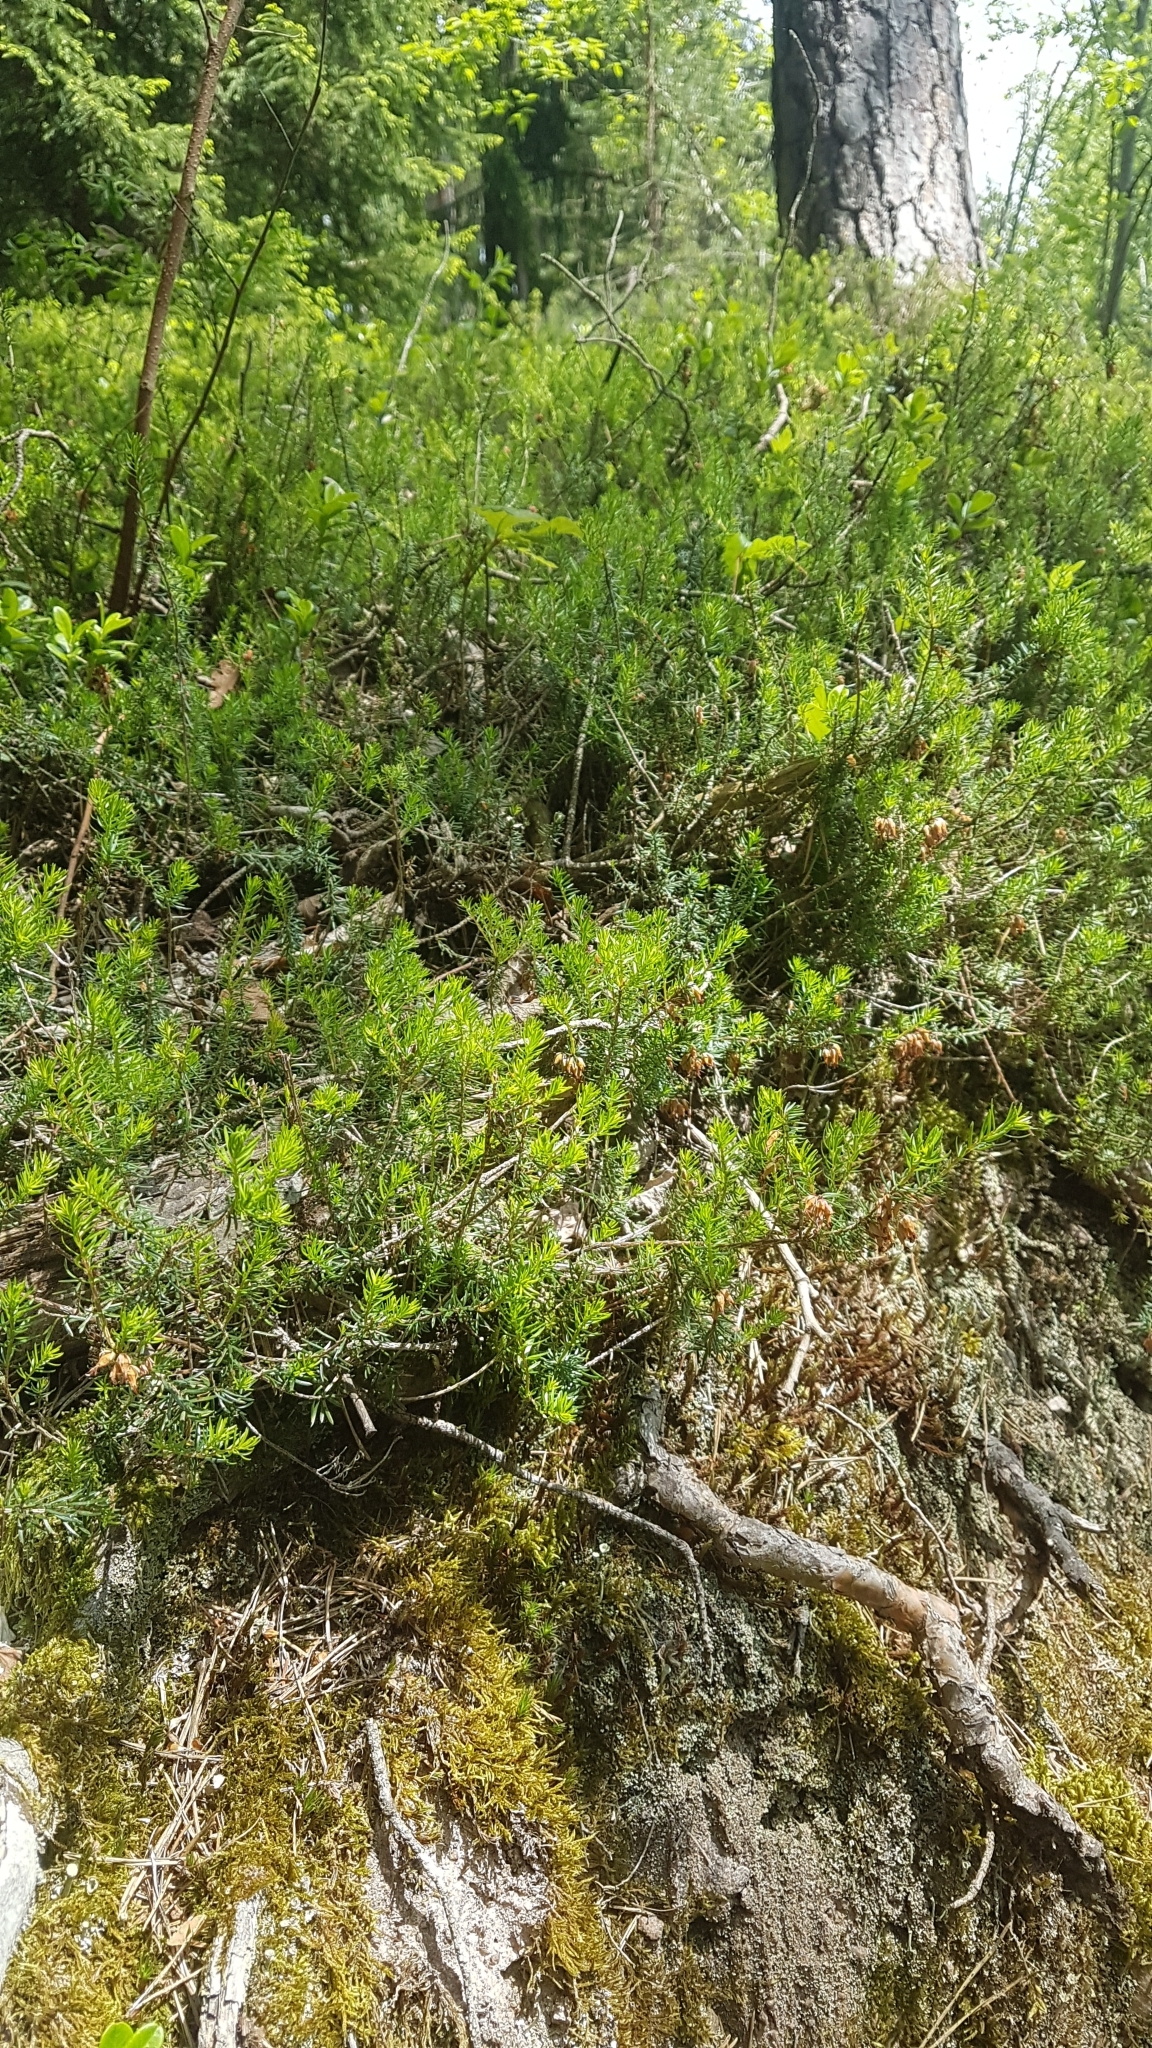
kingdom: Plantae
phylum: Tracheophyta
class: Magnoliopsida
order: Ericales
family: Ericaceae
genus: Erica
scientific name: Erica carnea
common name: Winter heath
